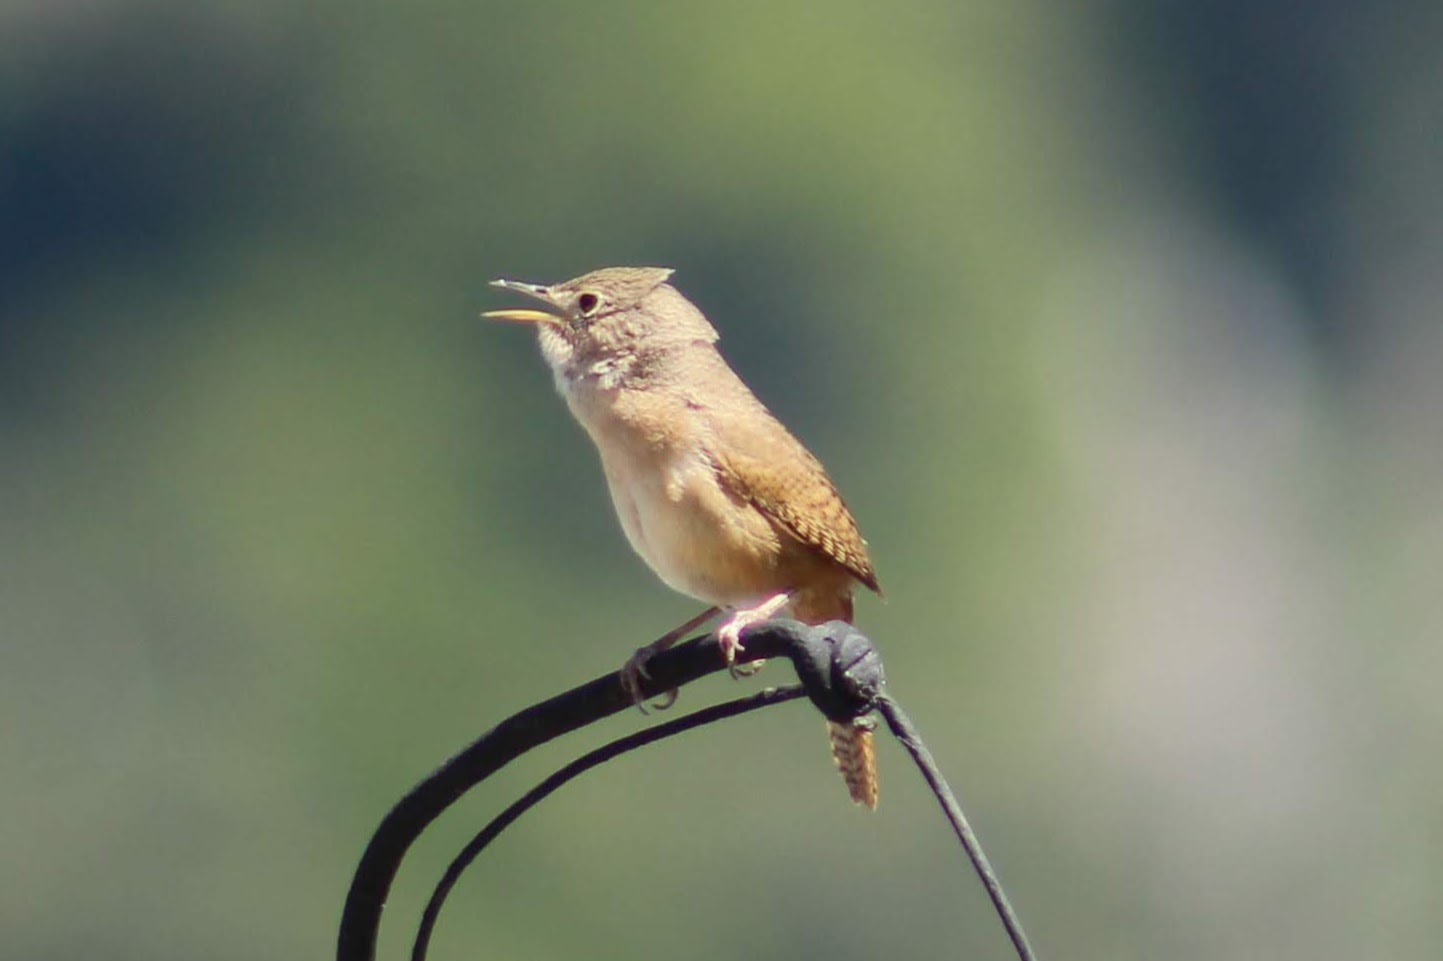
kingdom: Animalia
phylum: Chordata
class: Aves
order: Passeriformes
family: Troglodytidae
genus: Troglodytes
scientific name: Troglodytes aedon
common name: House wren
